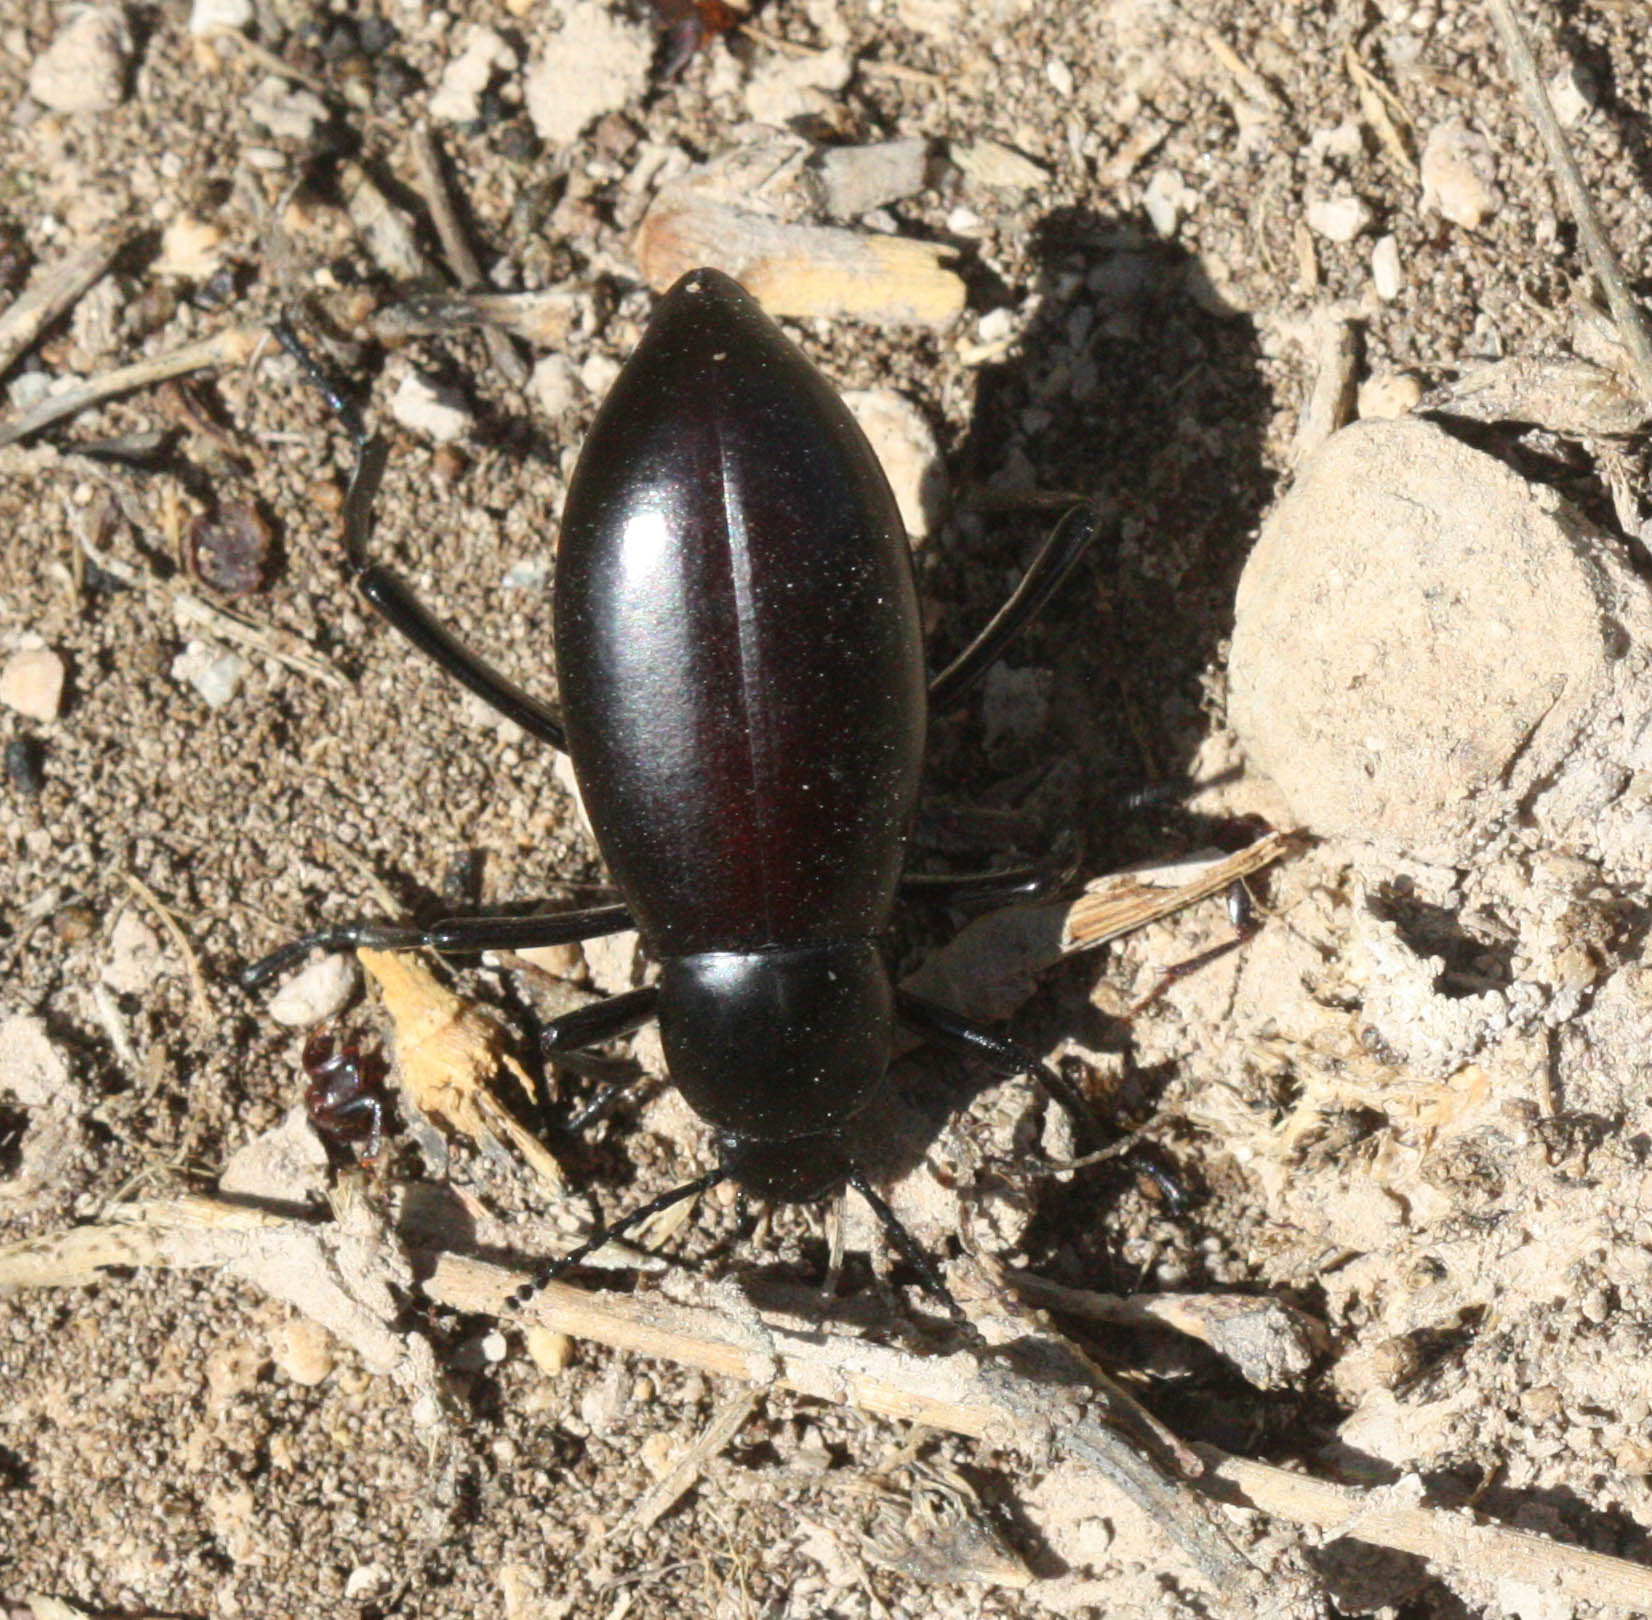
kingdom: Animalia
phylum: Arthropoda
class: Insecta
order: Coleoptera
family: Tenebrionidae
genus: Eleodes
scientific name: Eleodes longicollis
